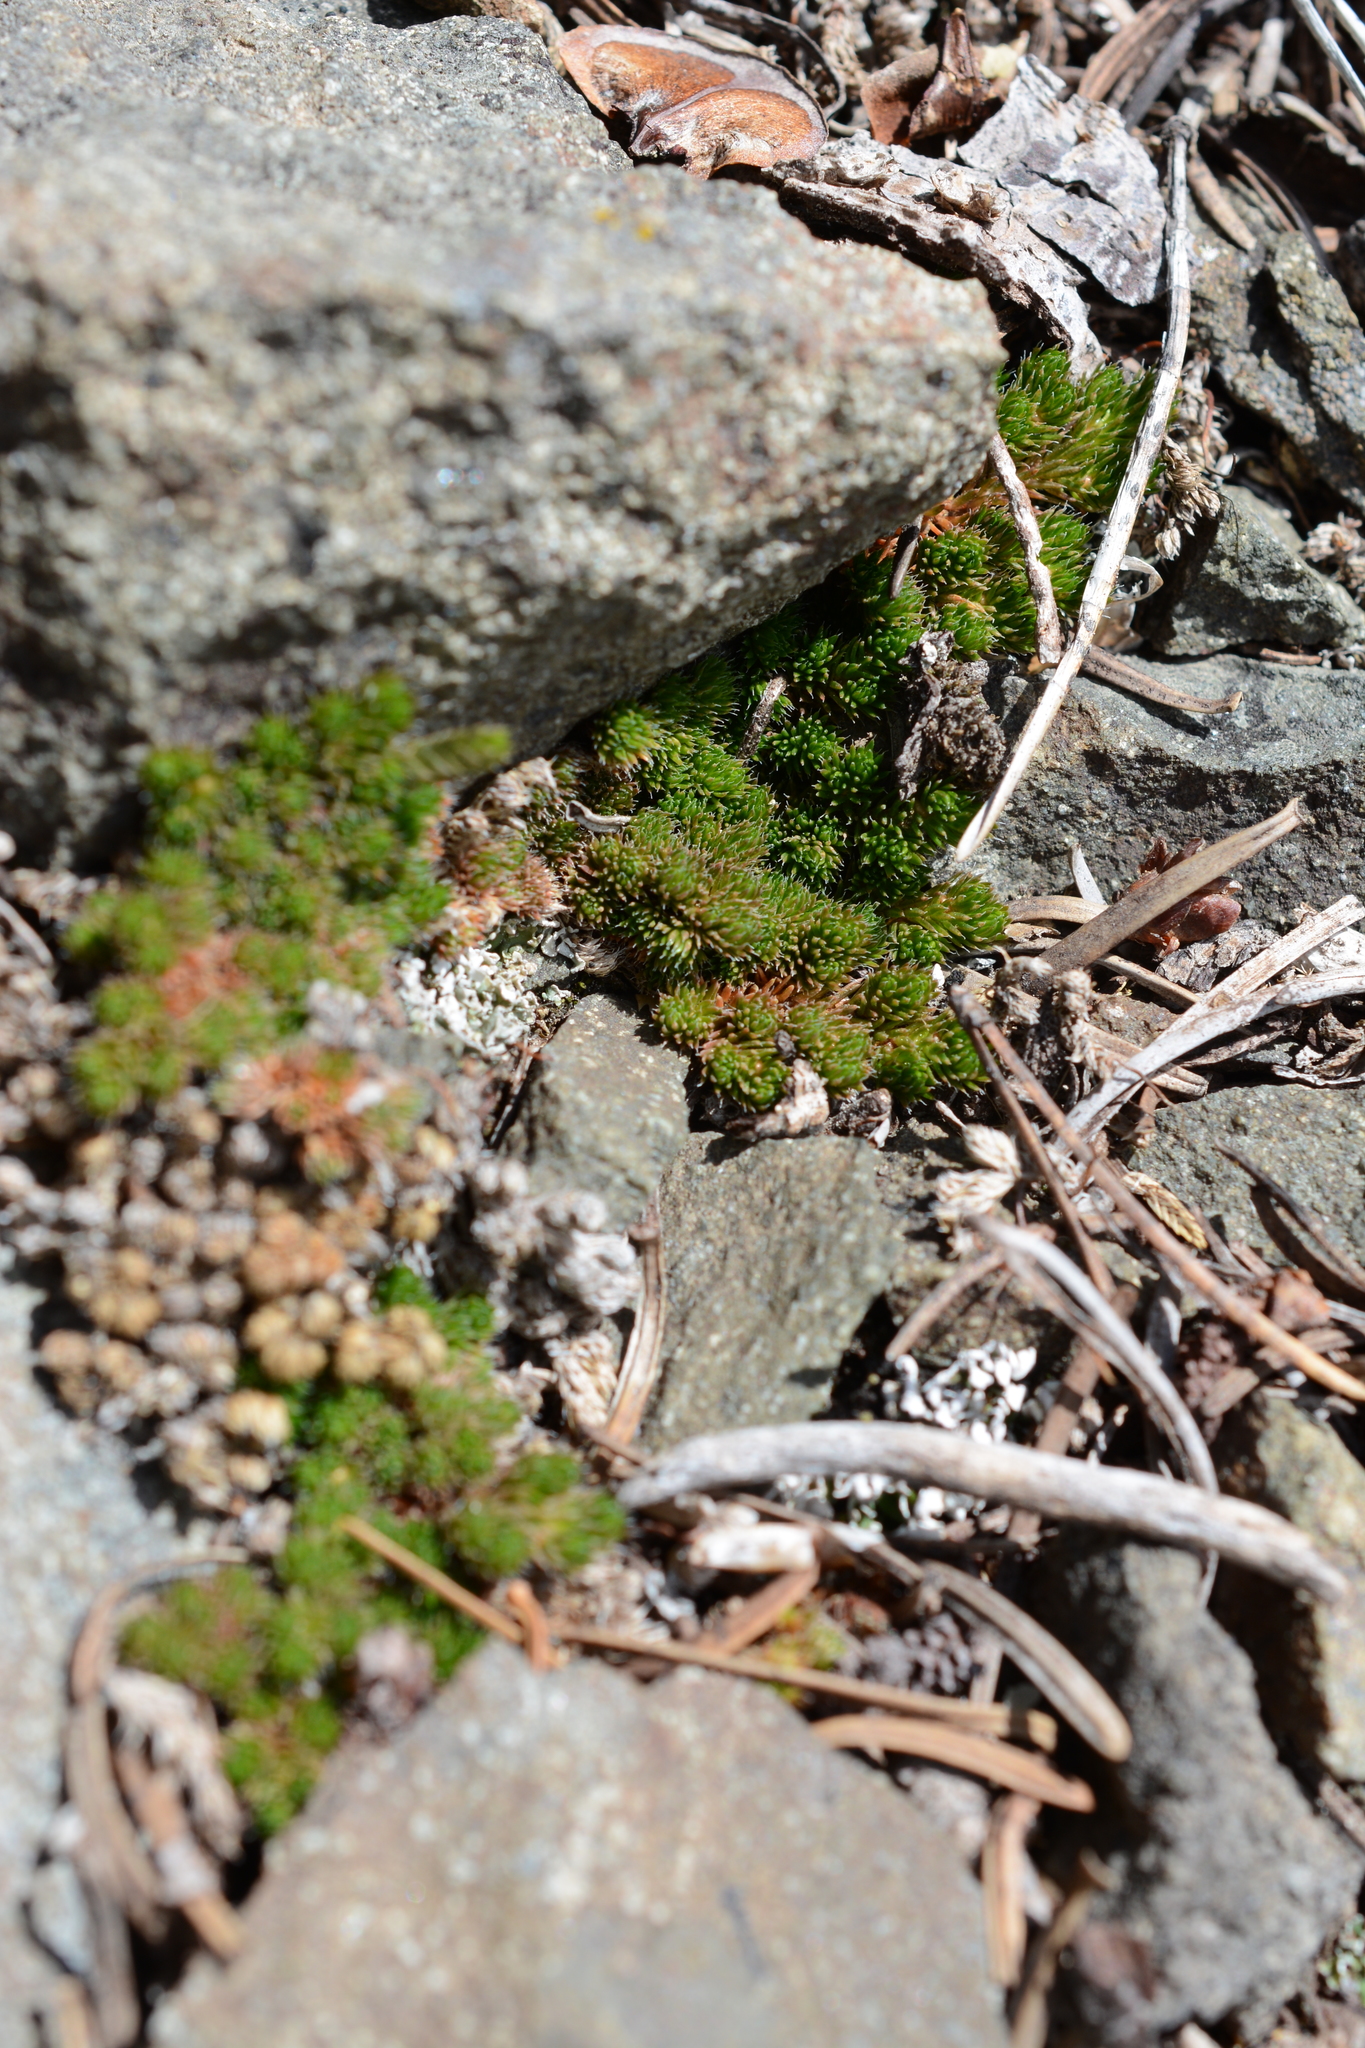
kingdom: Plantae
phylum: Tracheophyta
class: Lycopodiopsida
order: Selaginellales
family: Selaginellaceae
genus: Selaginella
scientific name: Selaginella densa
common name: Mountain spike-moss
